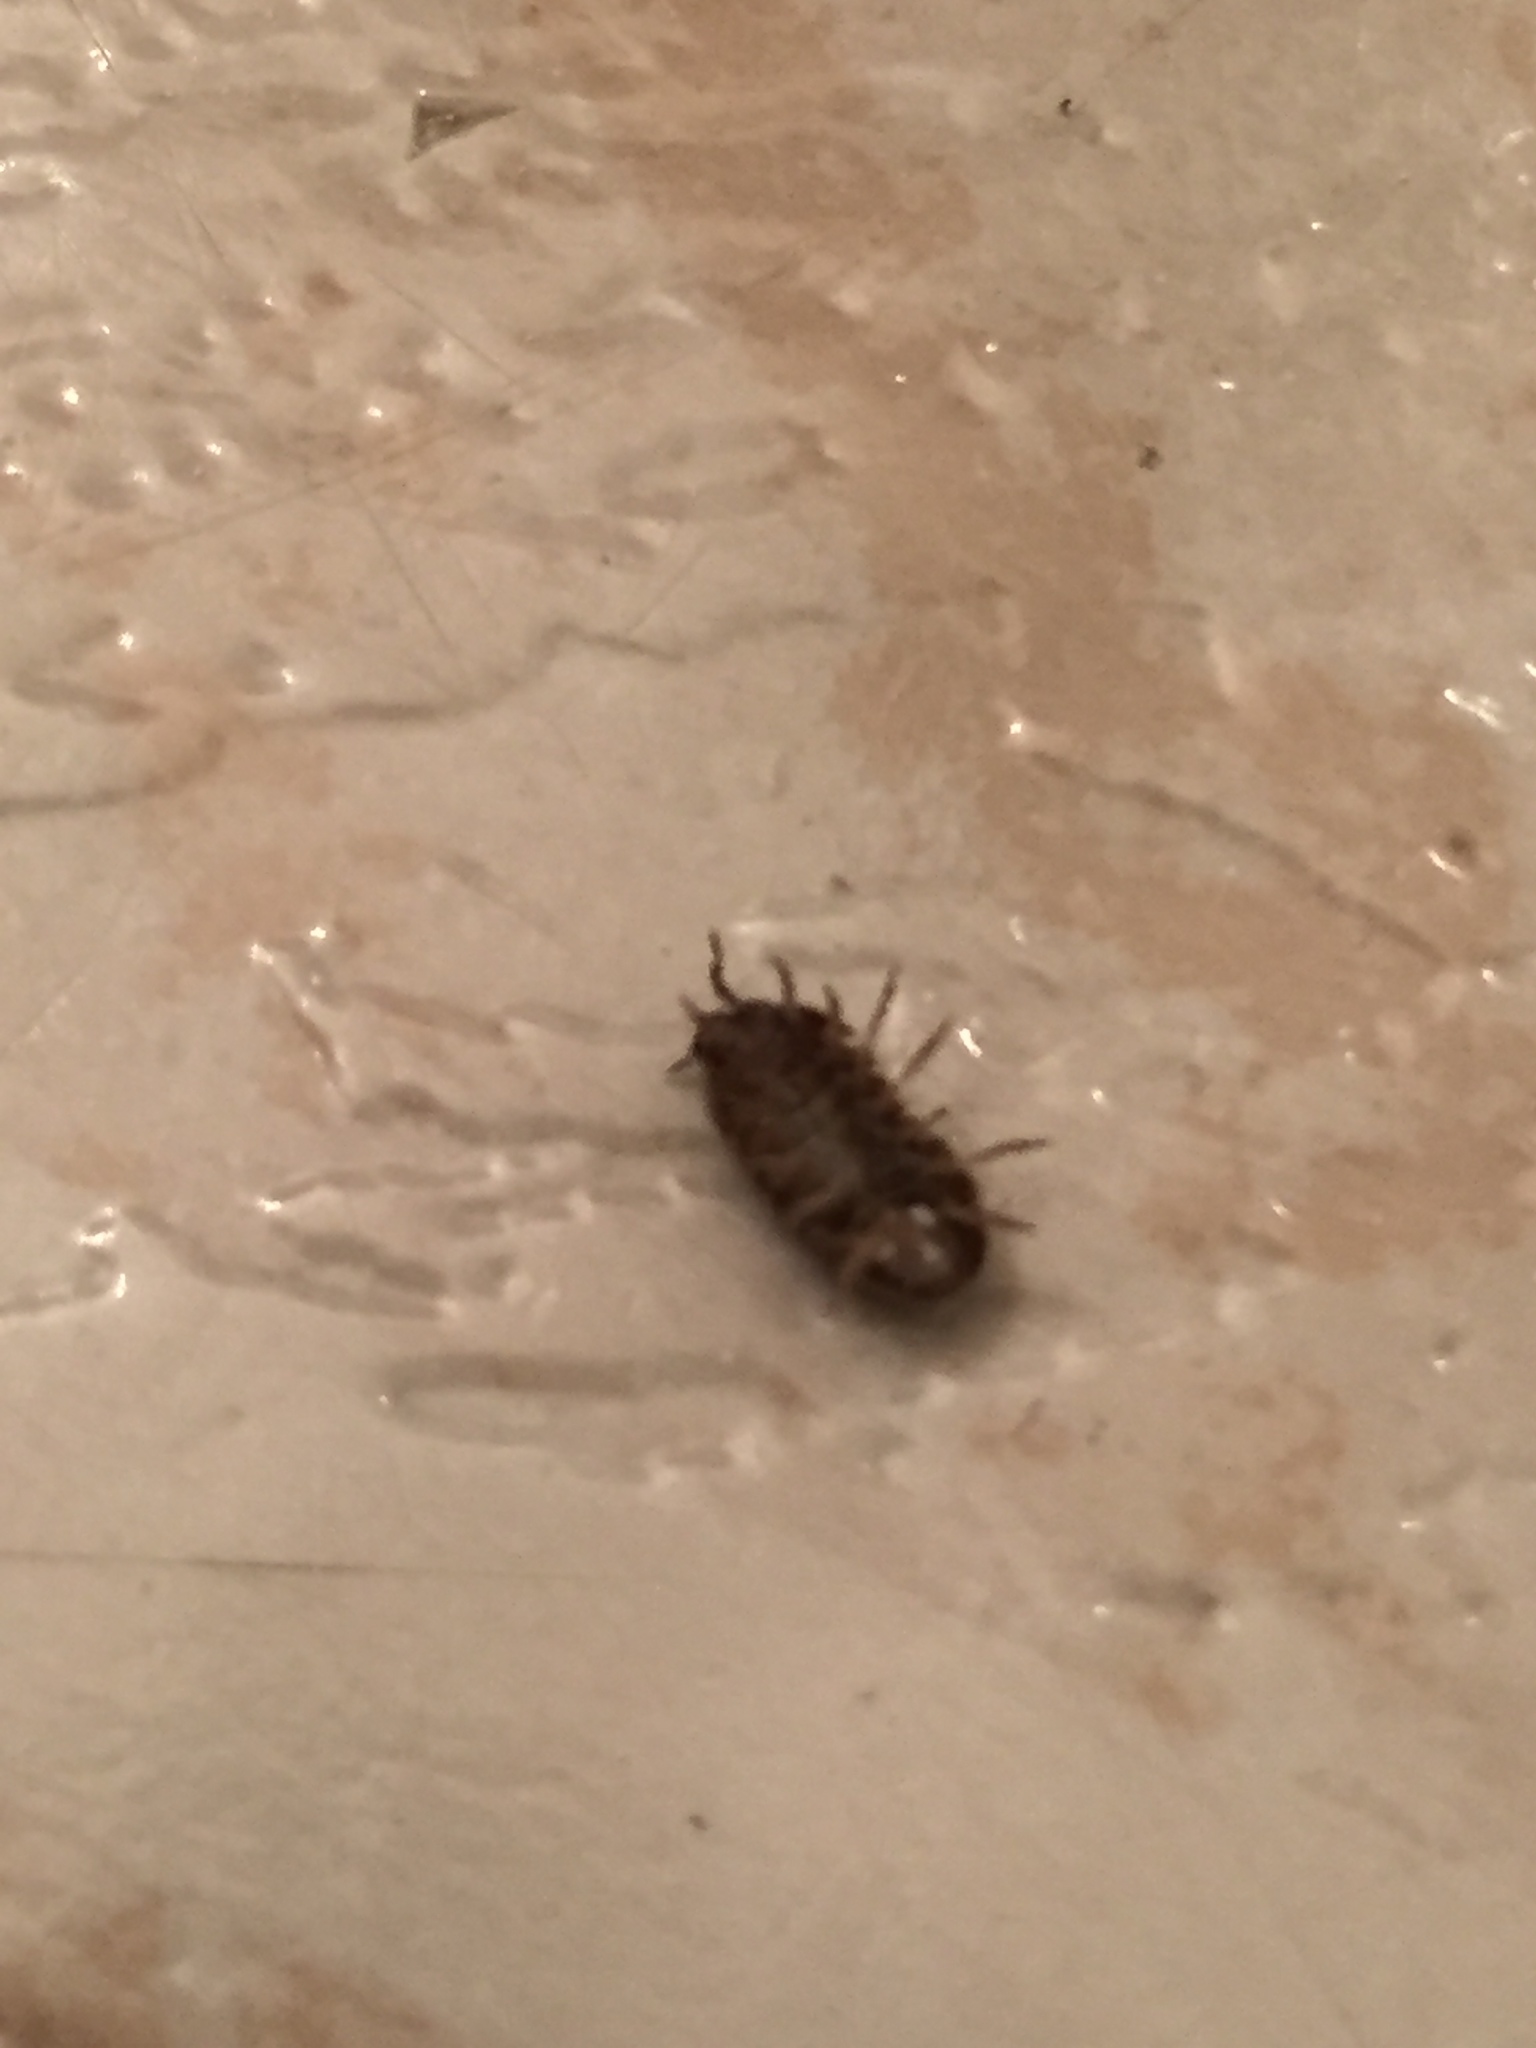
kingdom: Animalia
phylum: Arthropoda
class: Malacostraca
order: Isopoda
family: Armadillidiidae
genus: Armadillidium
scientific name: Armadillidium vulgare
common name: Common pill woodlouse
